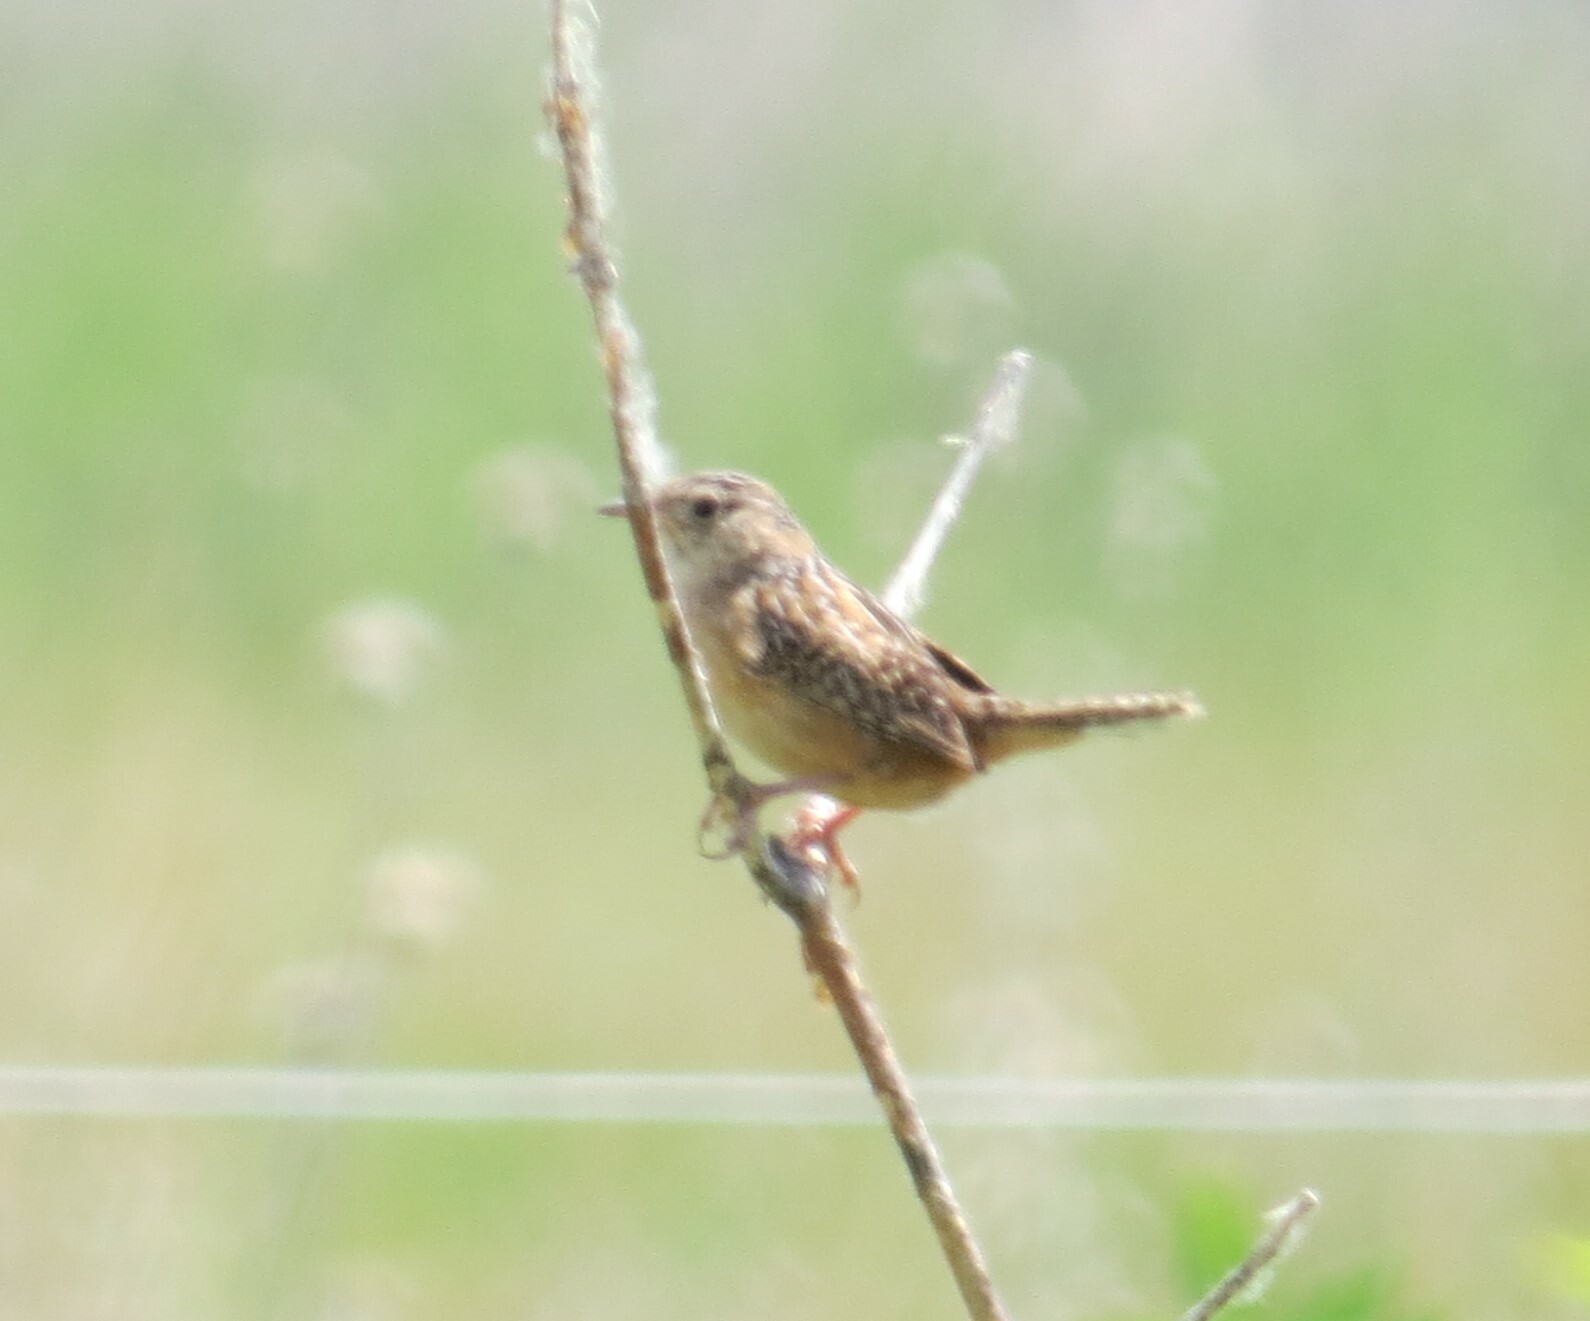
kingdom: Animalia
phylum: Chordata
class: Aves
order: Passeriformes
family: Troglodytidae
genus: Cistothorus
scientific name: Cistothorus platensis
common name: Sedge wren
